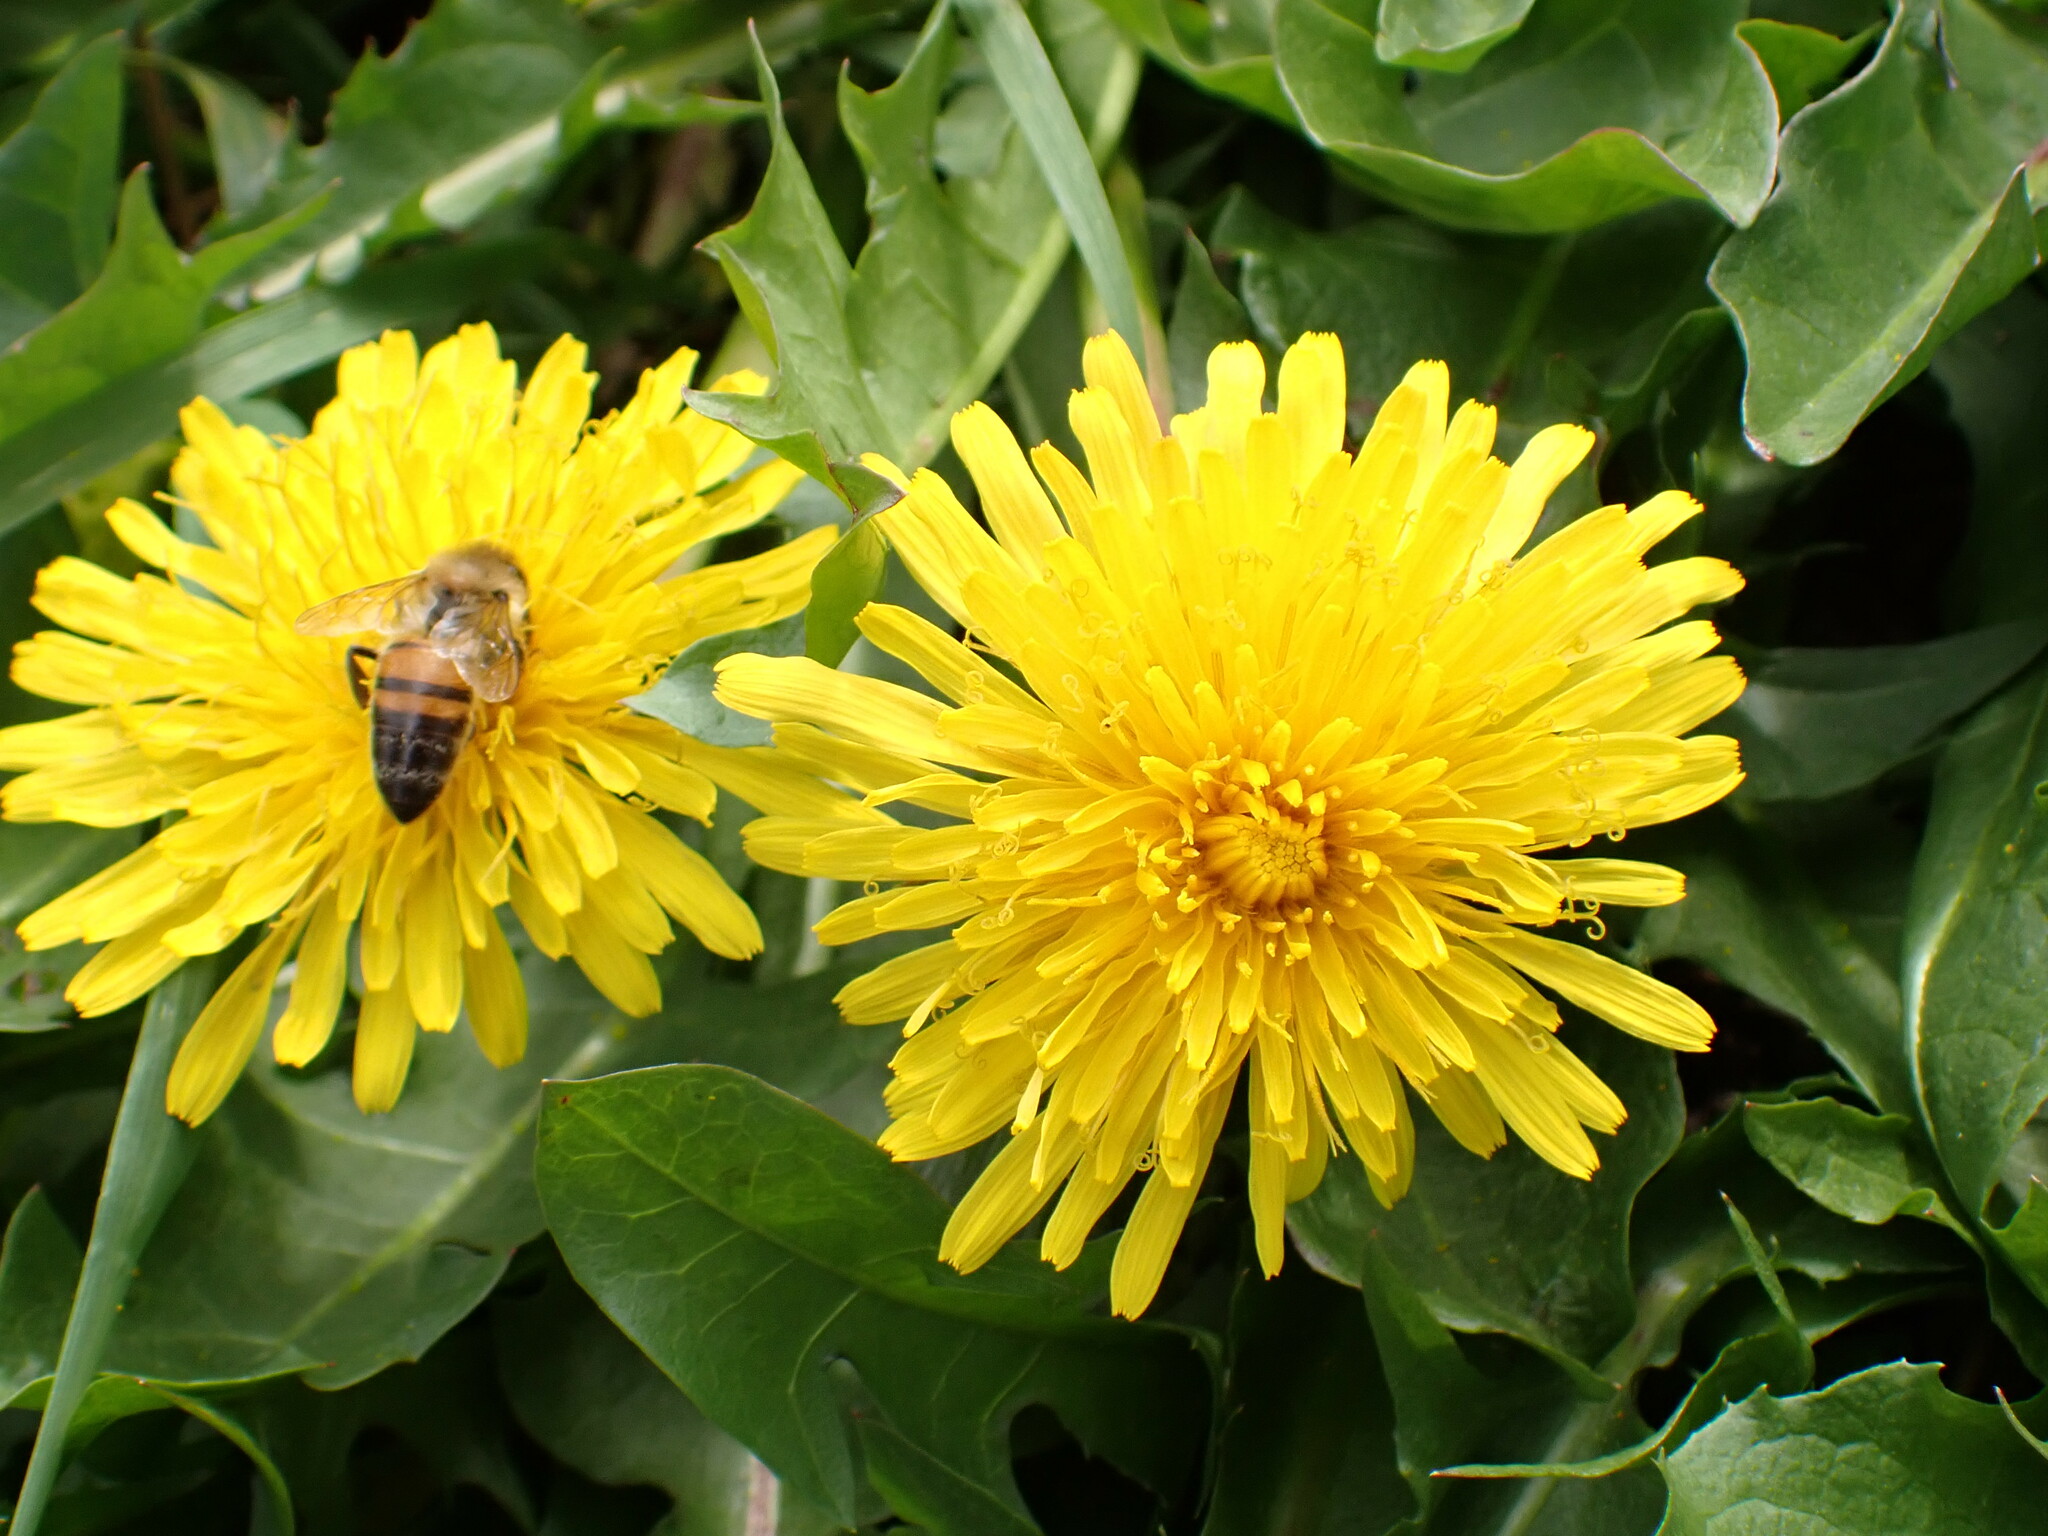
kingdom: Animalia
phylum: Arthropoda
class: Insecta
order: Hymenoptera
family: Apidae
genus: Apis
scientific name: Apis mellifera
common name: Honey bee
